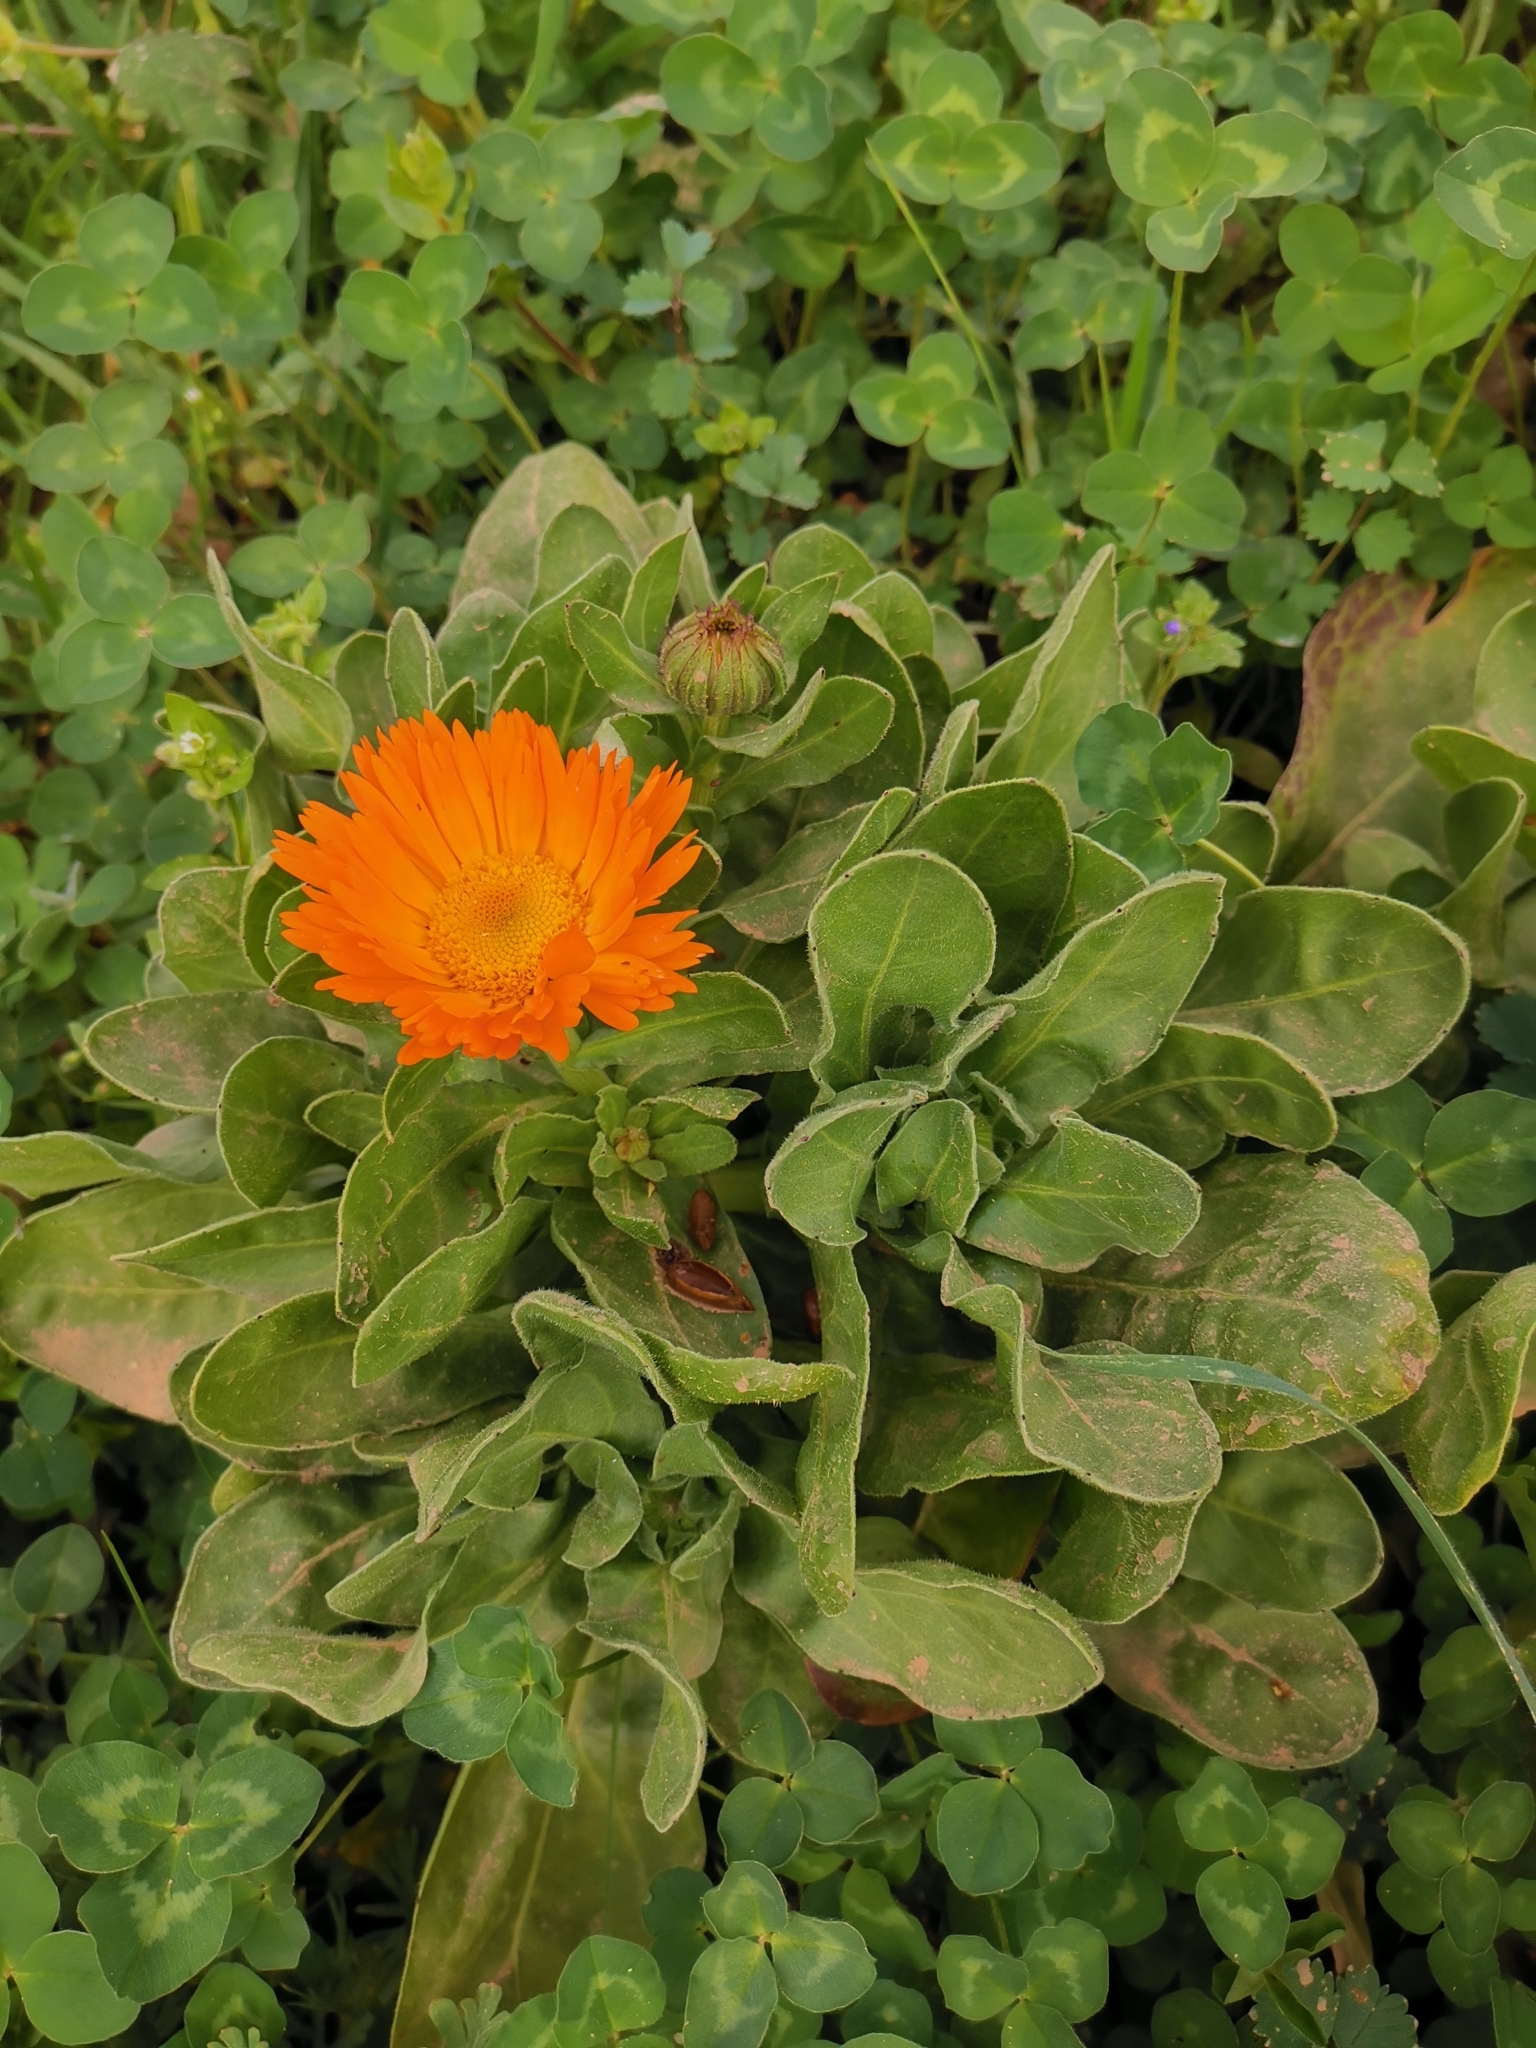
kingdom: Plantae
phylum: Tracheophyta
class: Magnoliopsida
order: Asterales
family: Asteraceae
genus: Calendula
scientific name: Calendula officinalis
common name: Pot marigold
